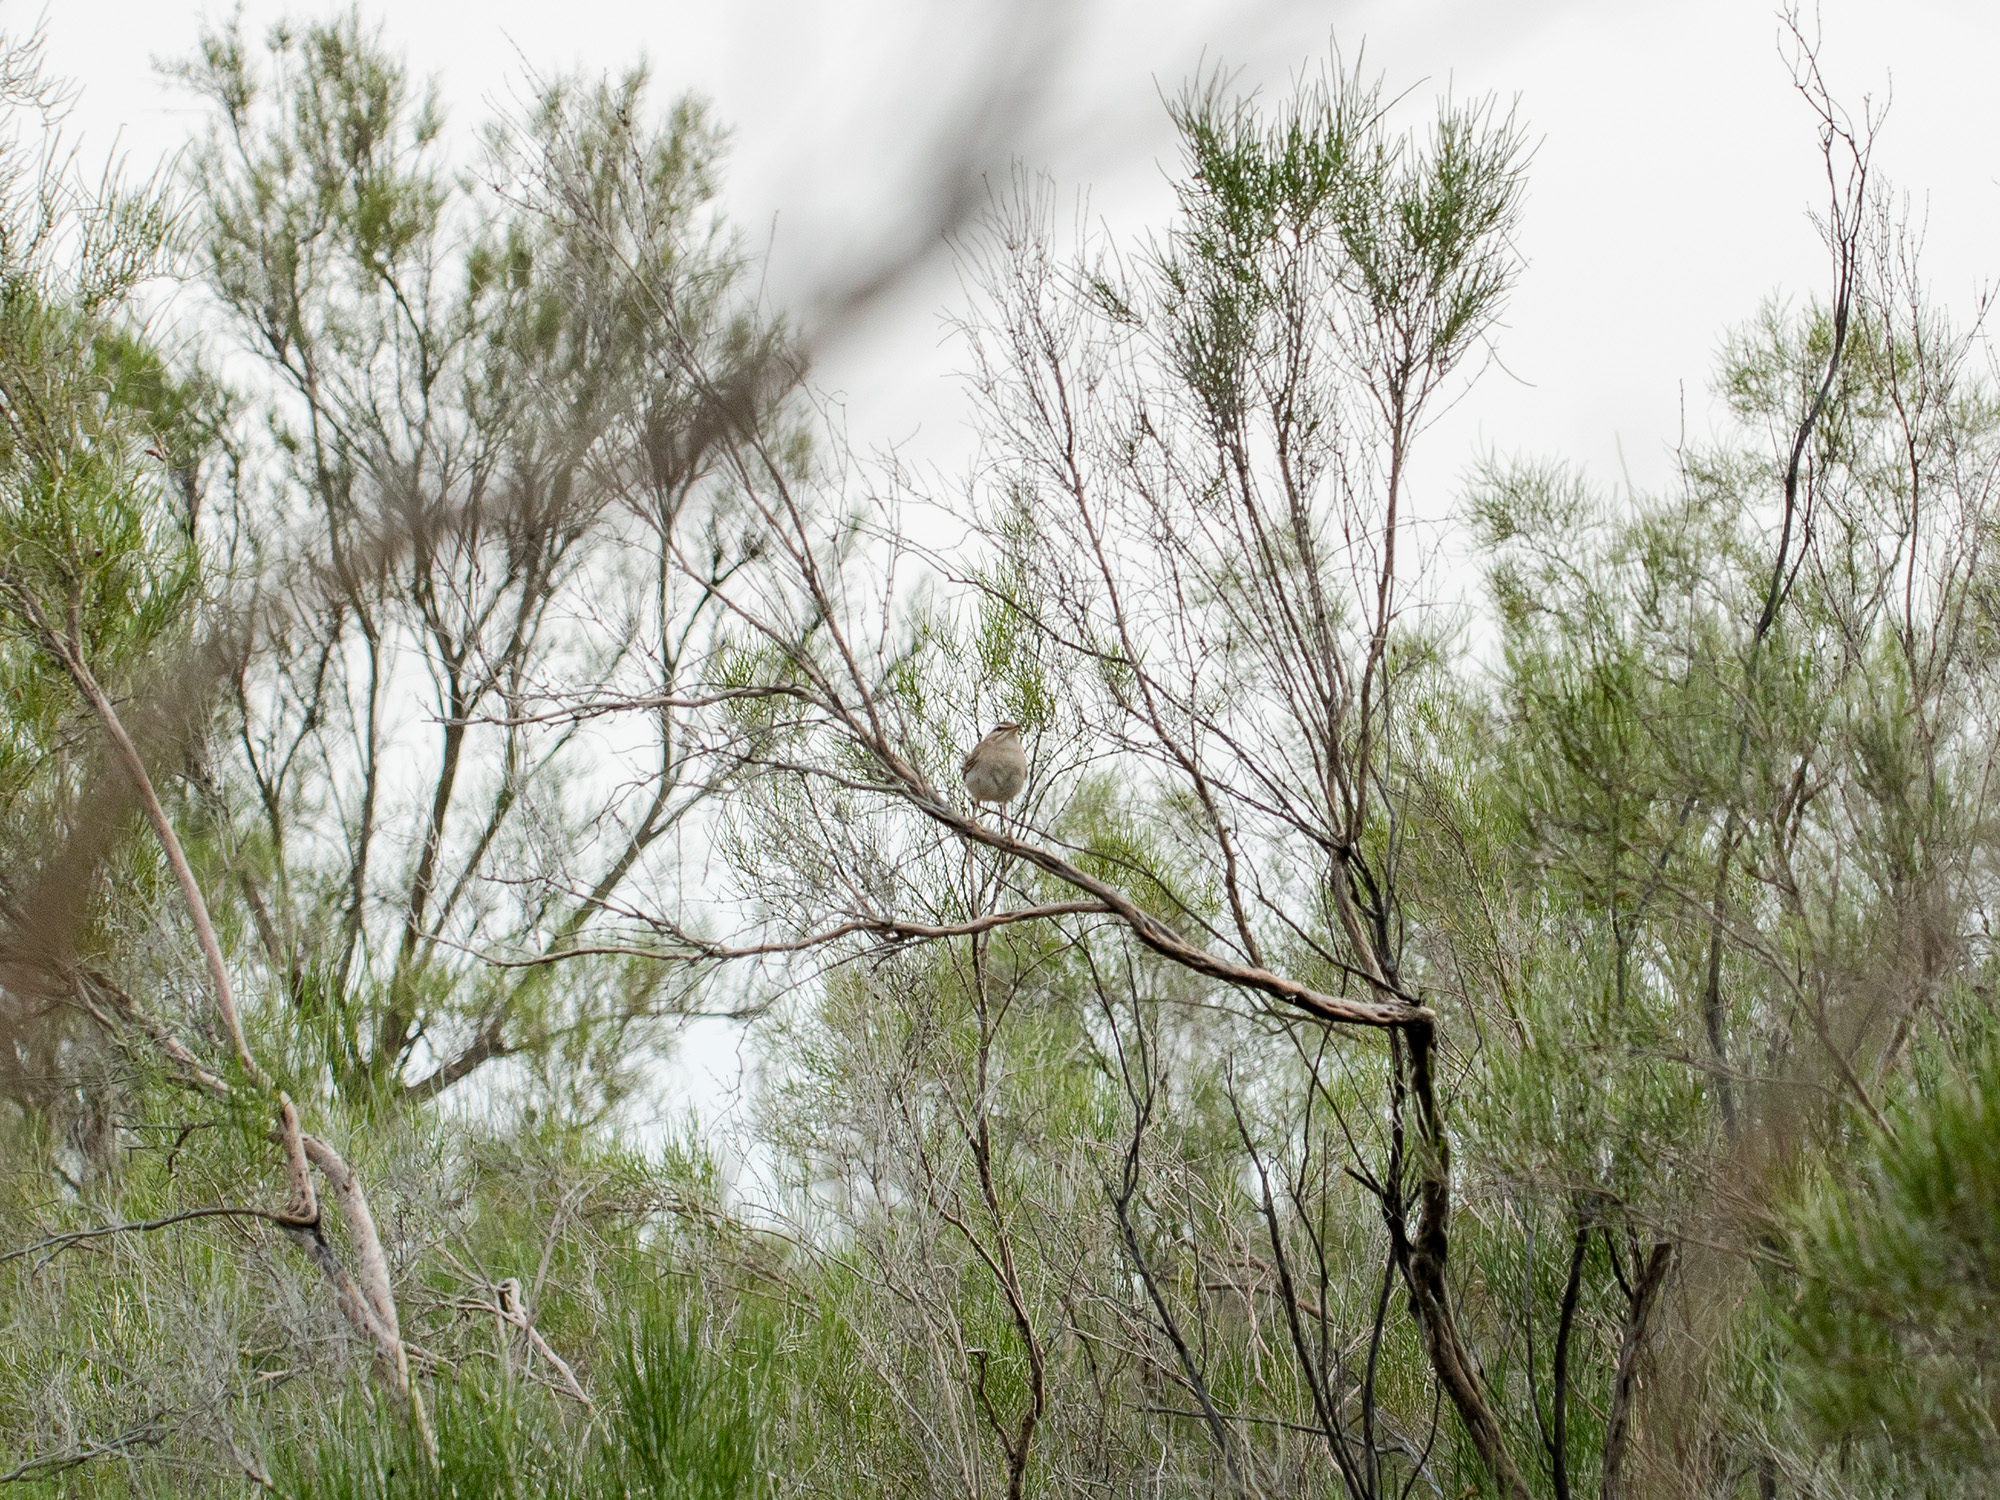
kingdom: Animalia
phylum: Chordata
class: Aves
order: Passeriformes
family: Muscicapidae
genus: Erythropygia
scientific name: Erythropygia galactotes
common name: Rufous-tailed scrub robin
